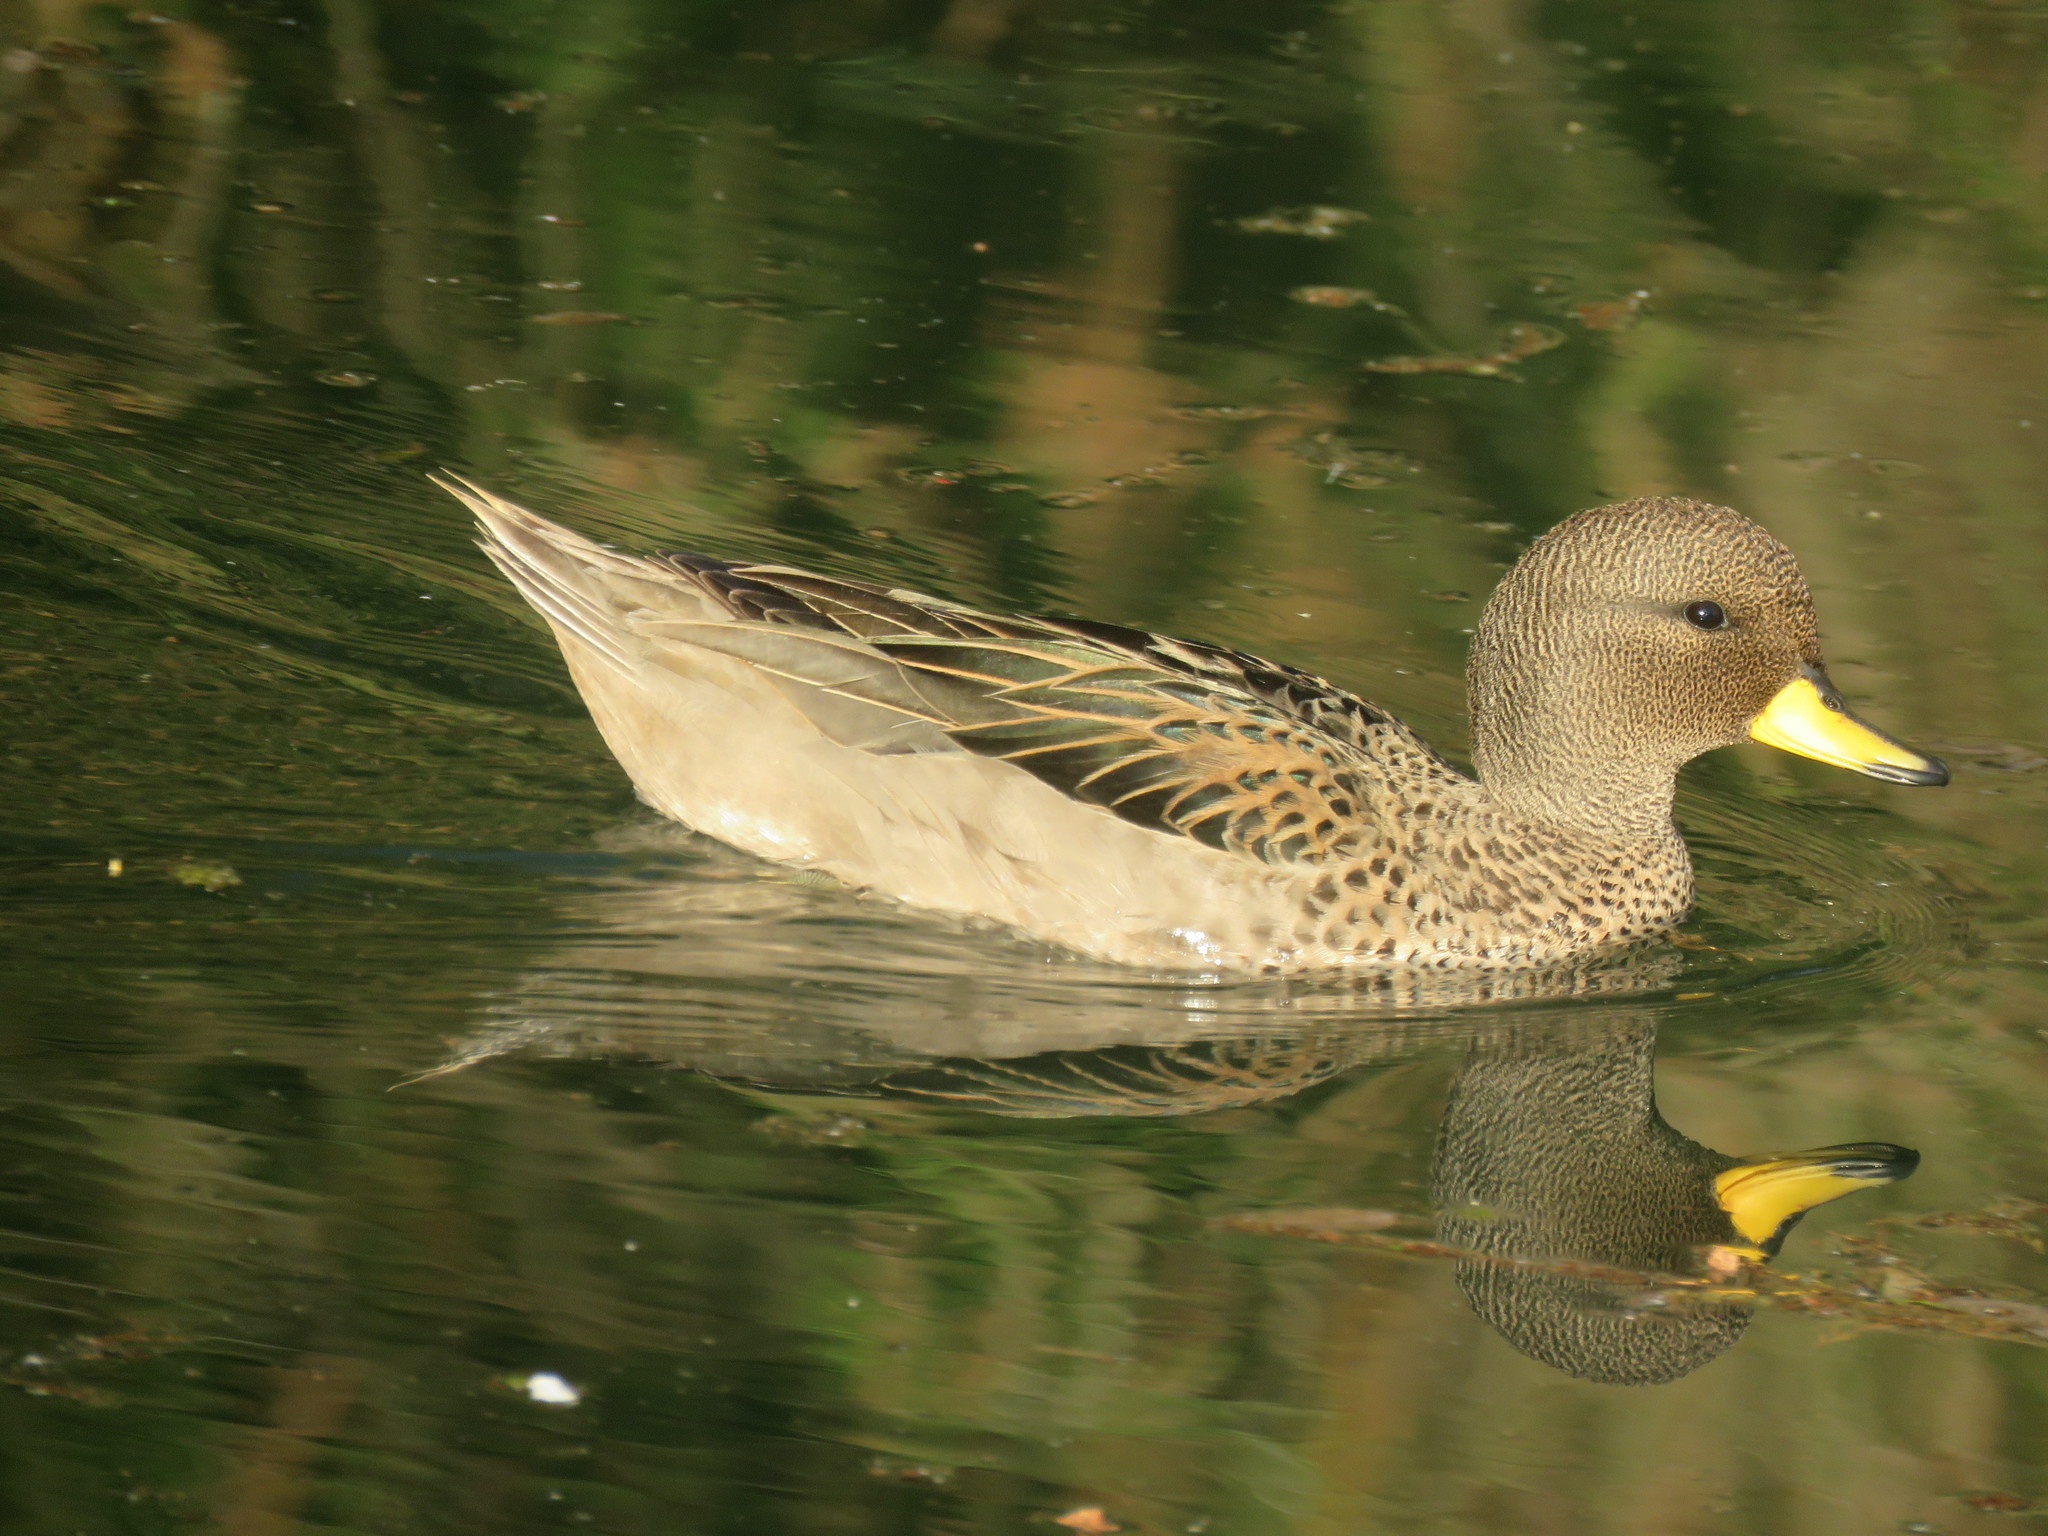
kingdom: Animalia
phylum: Chordata
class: Aves
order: Anseriformes
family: Anatidae
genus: Anas
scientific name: Anas flavirostris
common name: Yellow-billed teal
